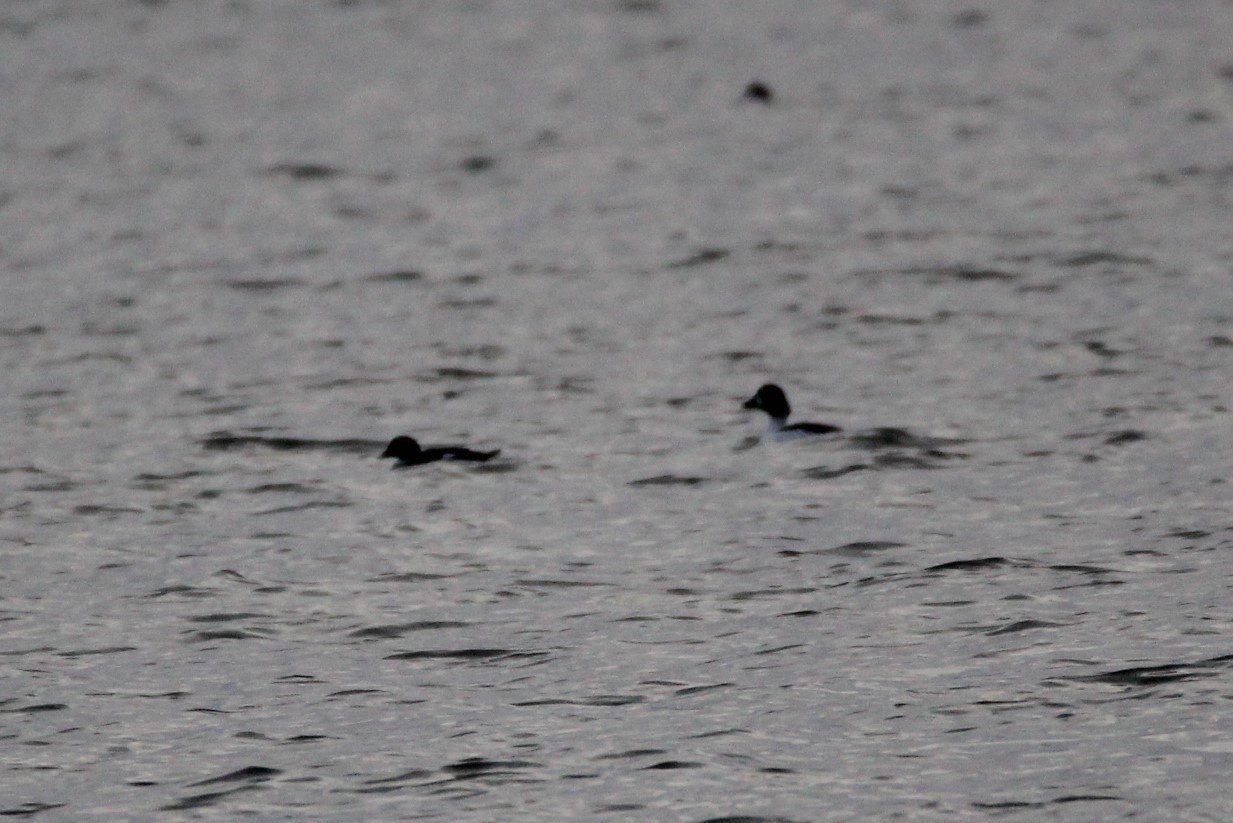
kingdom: Animalia
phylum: Chordata
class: Aves
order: Anseriformes
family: Anatidae
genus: Bucephala
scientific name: Bucephala clangula
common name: Common goldeneye
